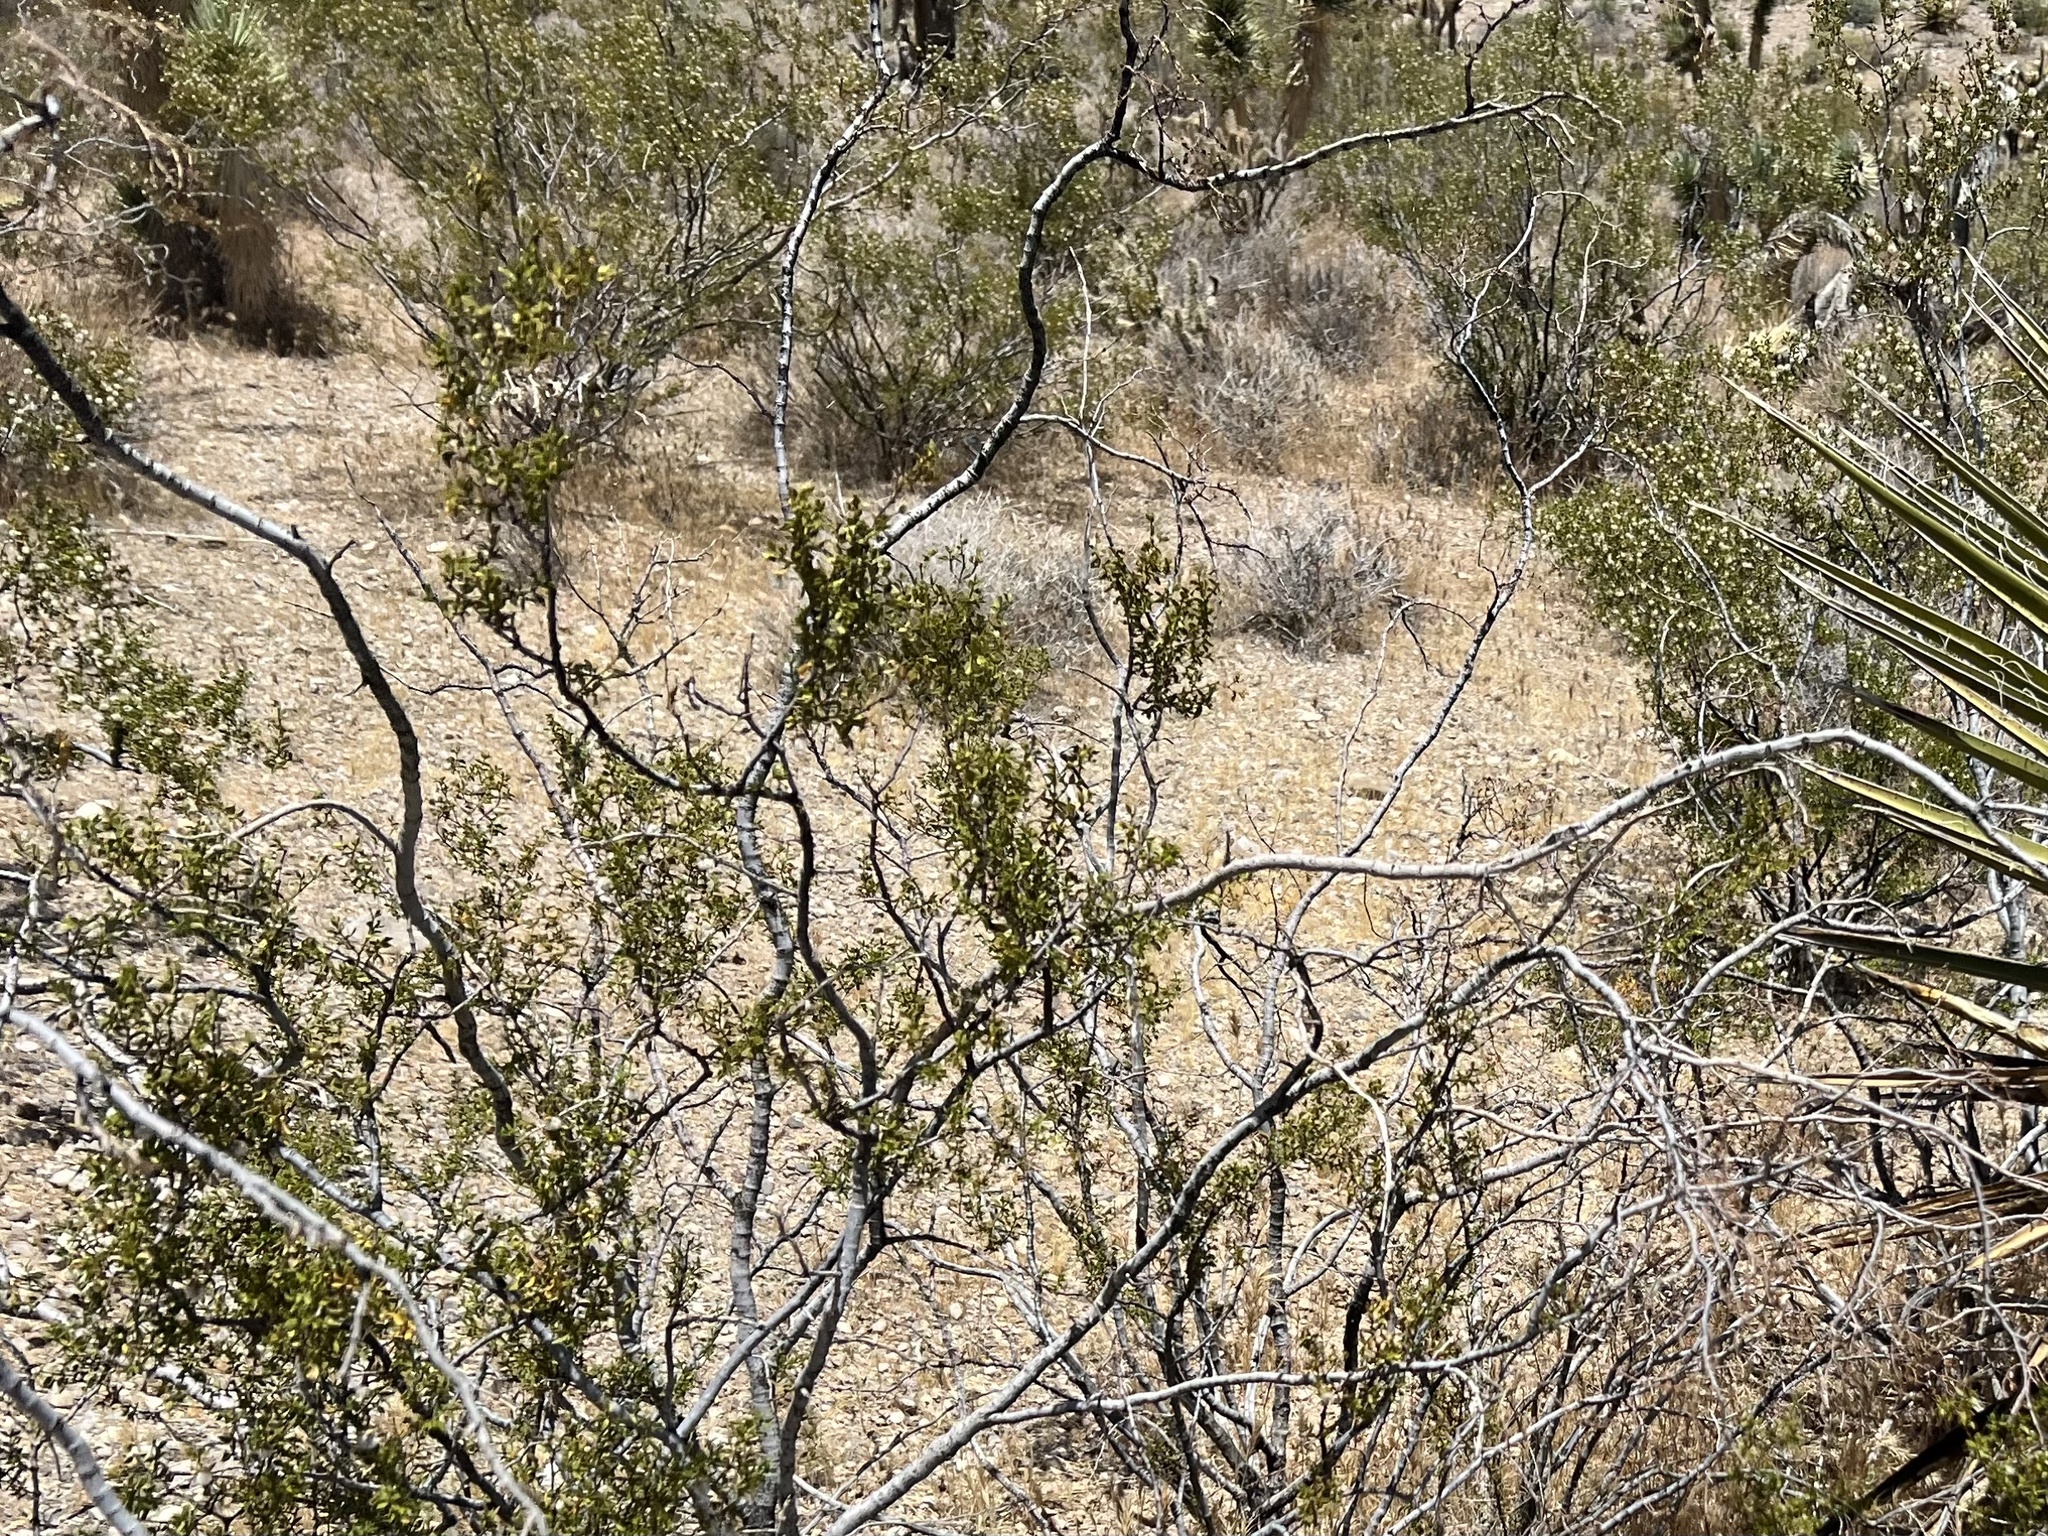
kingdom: Plantae
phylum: Tracheophyta
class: Magnoliopsida
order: Zygophyllales
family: Zygophyllaceae
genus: Larrea
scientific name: Larrea tridentata
